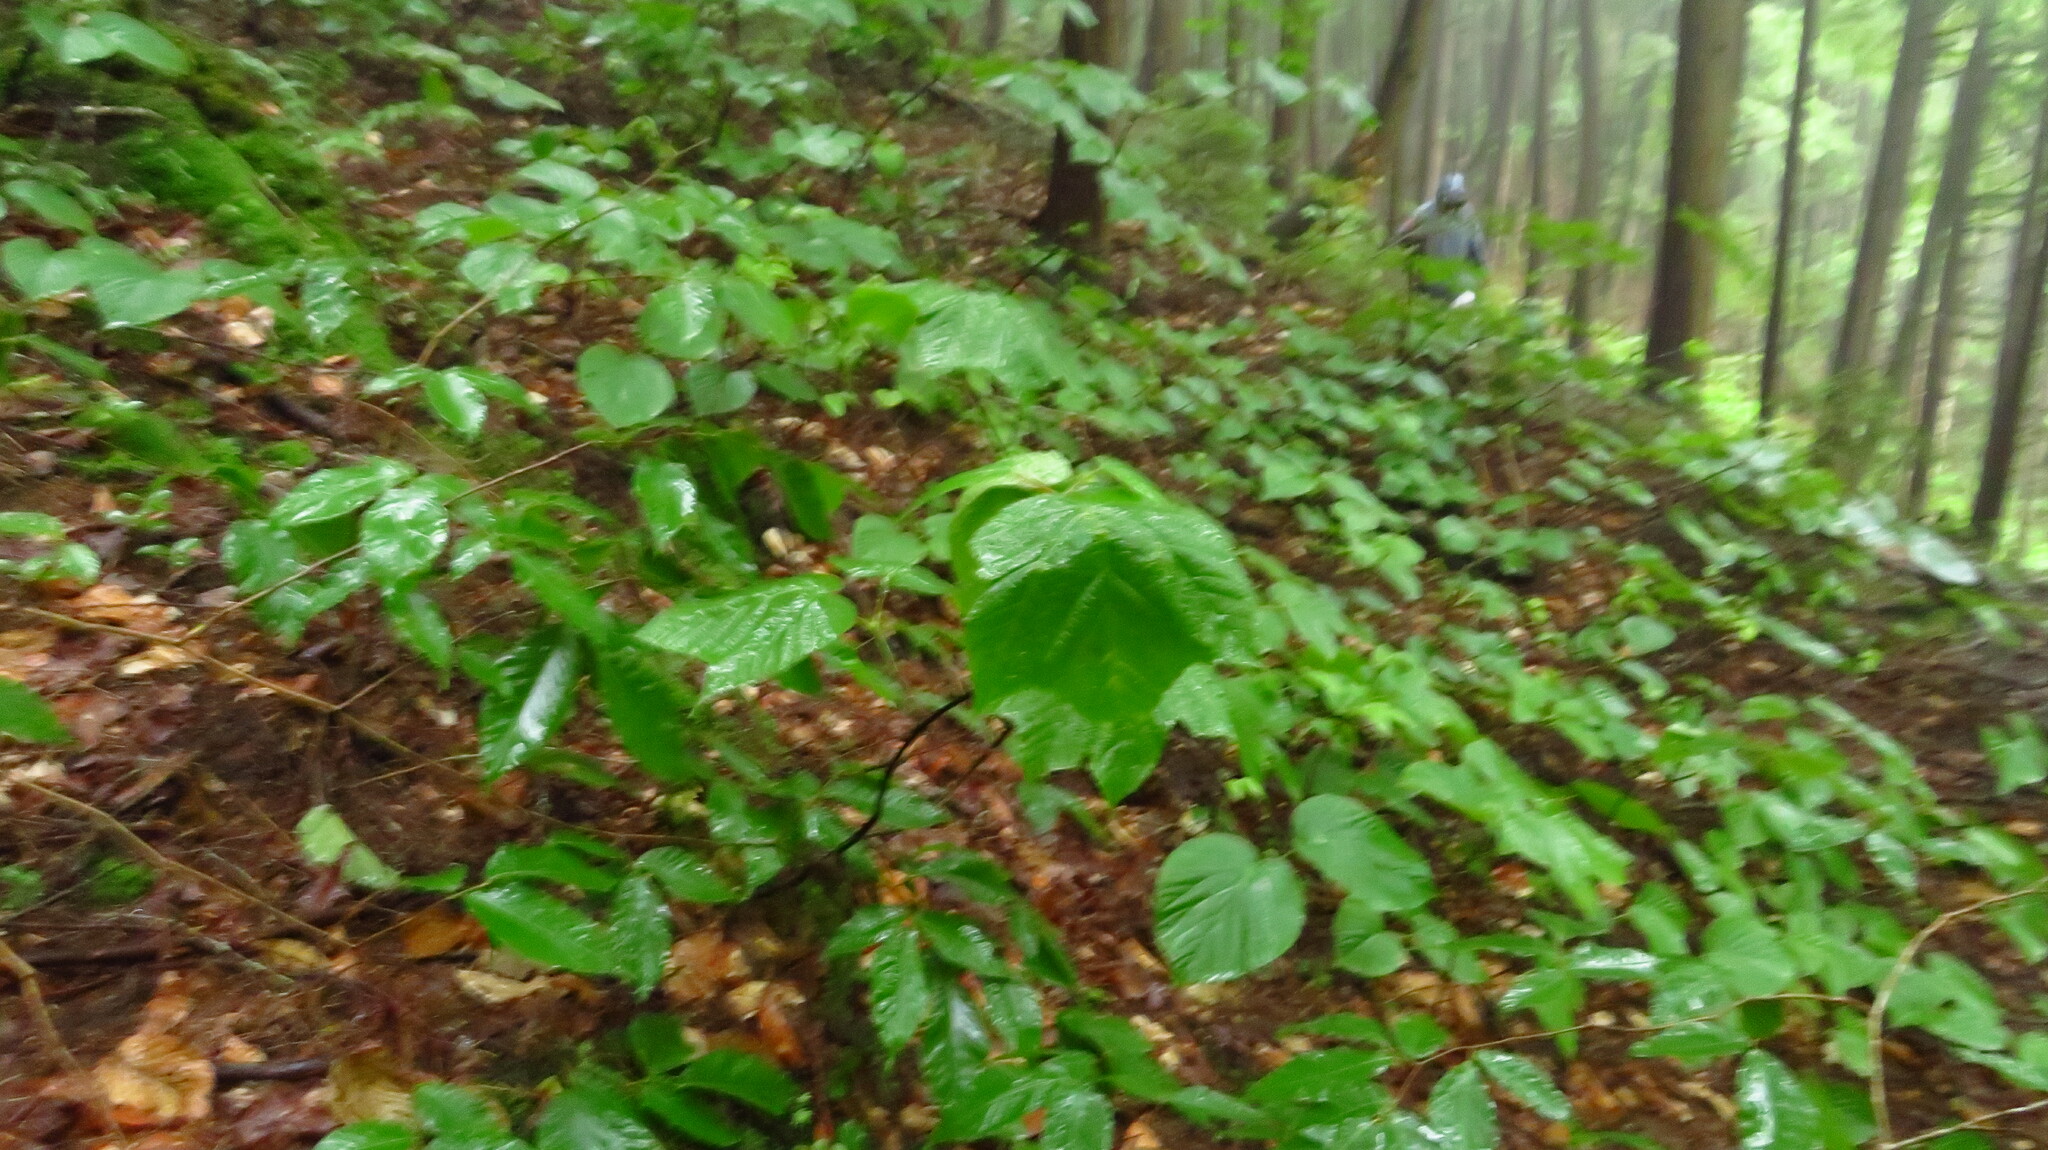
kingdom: Plantae
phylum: Tracheophyta
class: Magnoliopsida
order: Sapindales
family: Sapindaceae
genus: Acer
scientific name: Acer pensylvanicum
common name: Moosewood
